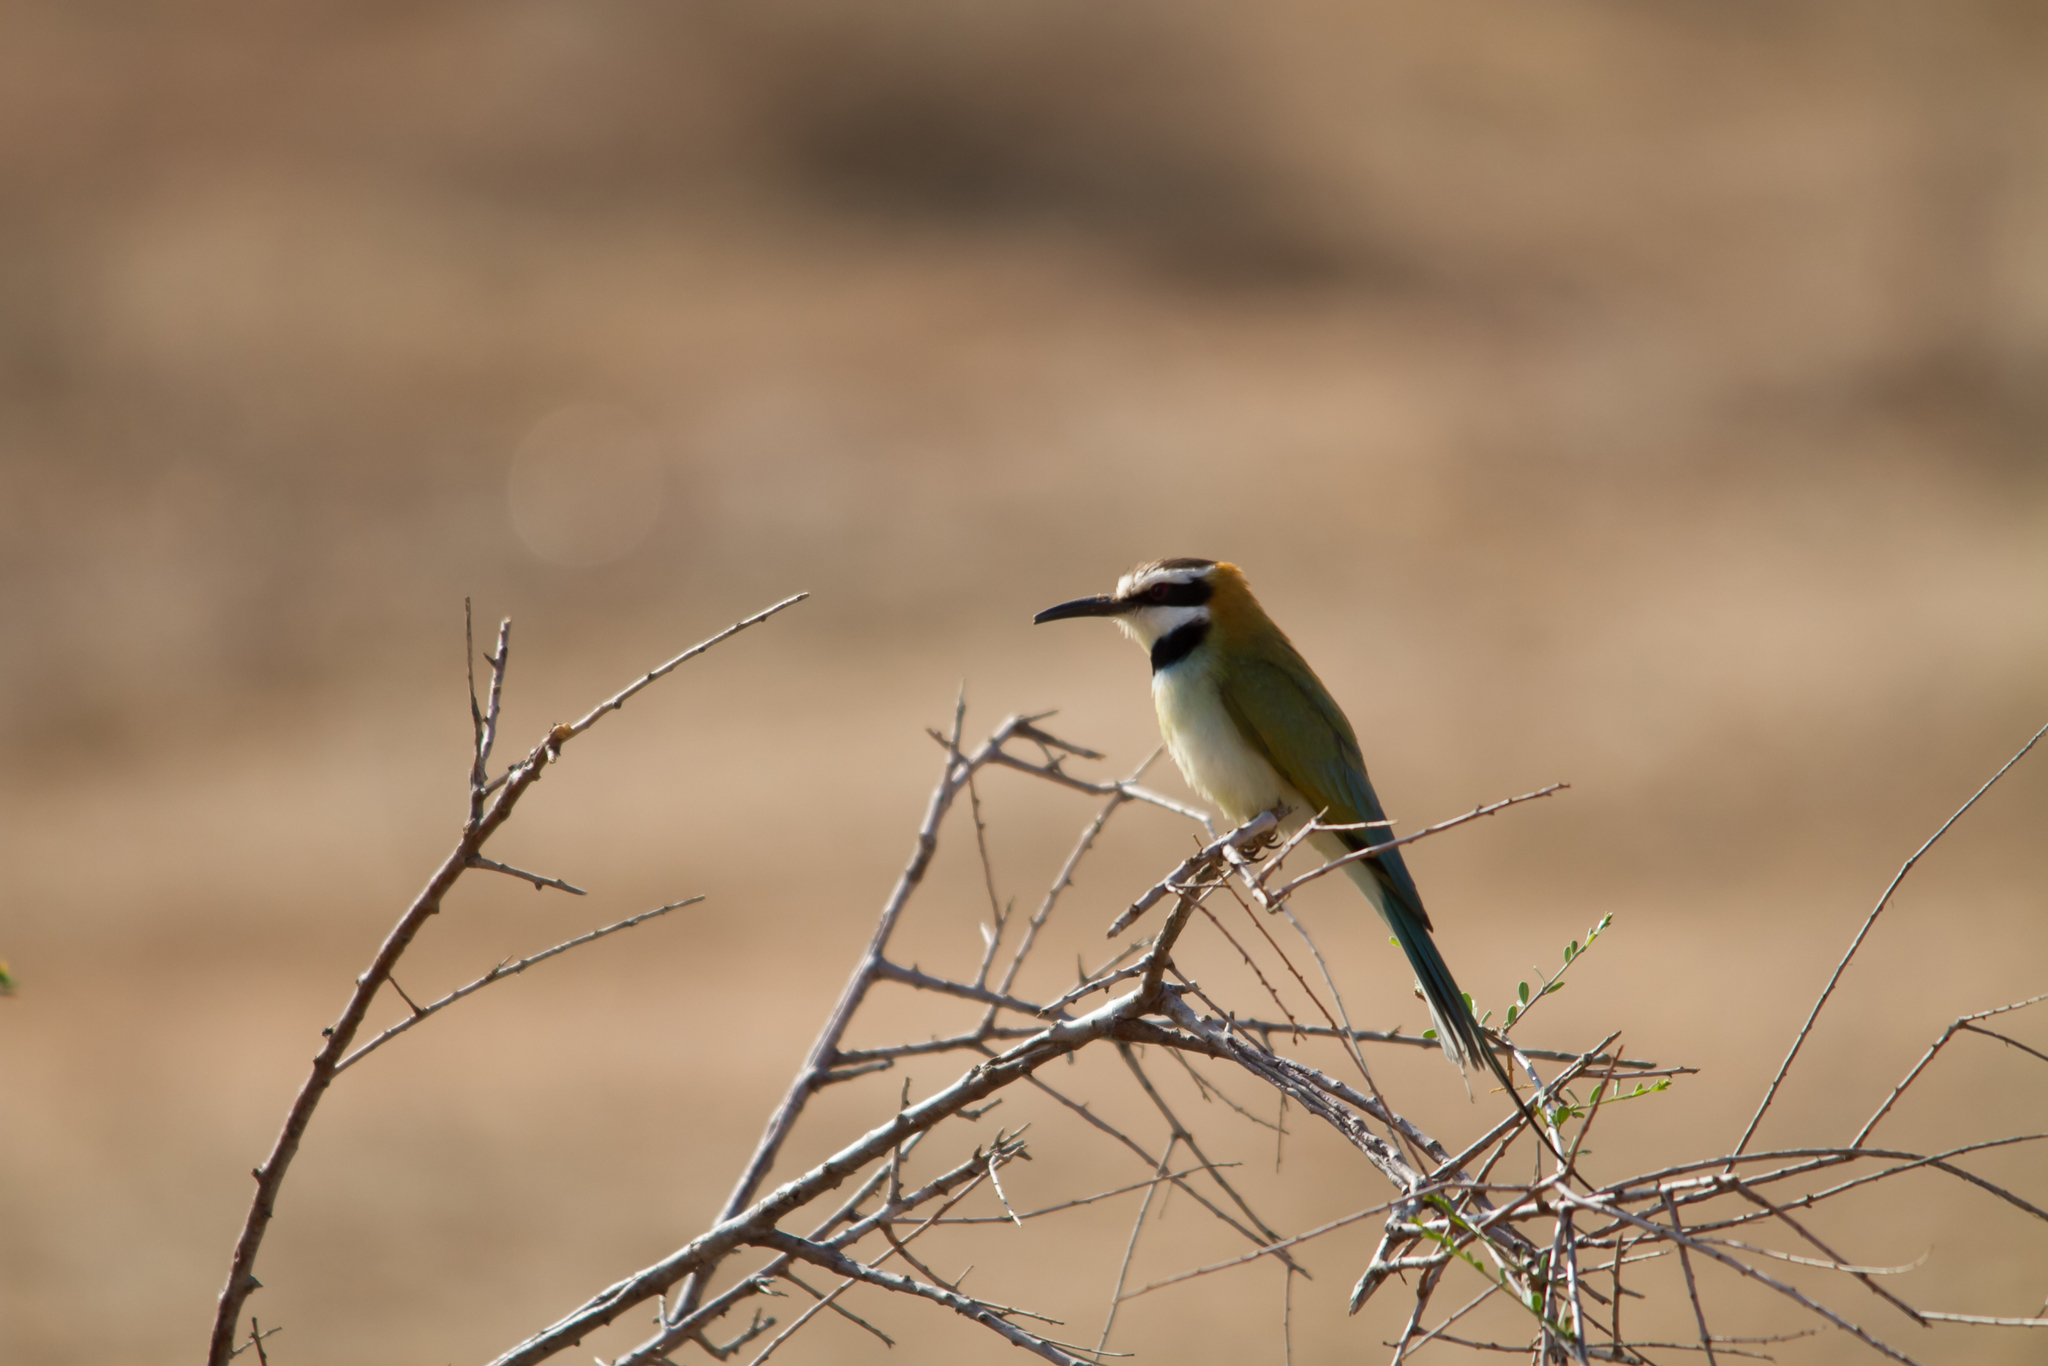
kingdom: Animalia
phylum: Chordata
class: Aves
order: Coraciiformes
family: Meropidae
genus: Merops
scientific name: Merops albicollis
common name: White-throated bee-eater
